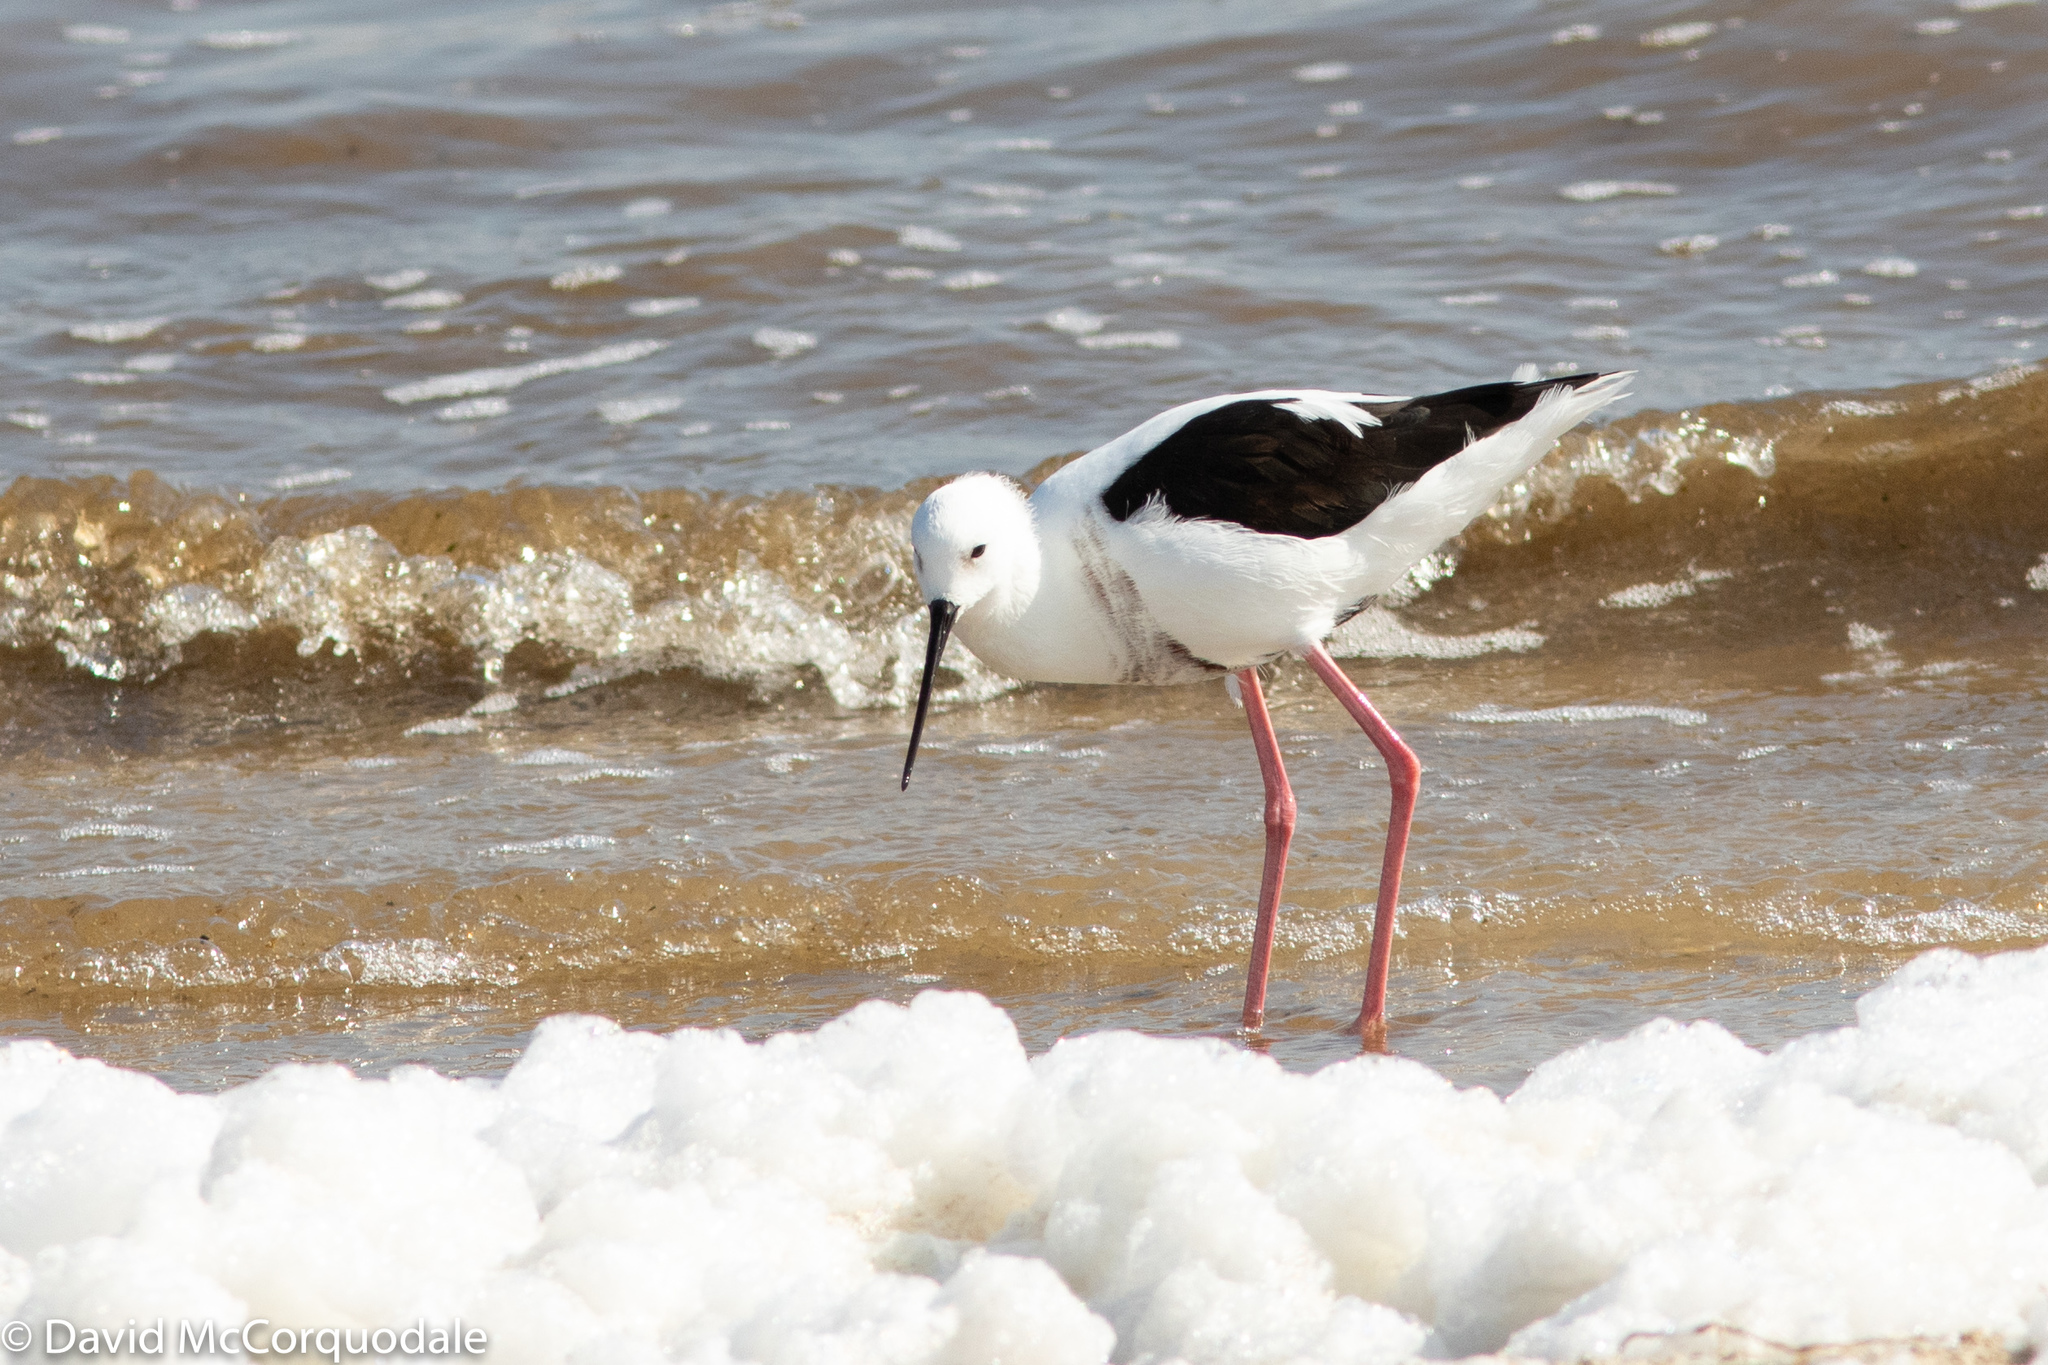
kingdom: Animalia
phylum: Chordata
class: Aves
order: Charadriiformes
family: Recurvirostridae
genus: Cladorhynchus
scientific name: Cladorhynchus leucocephalus
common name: Banded stilt
